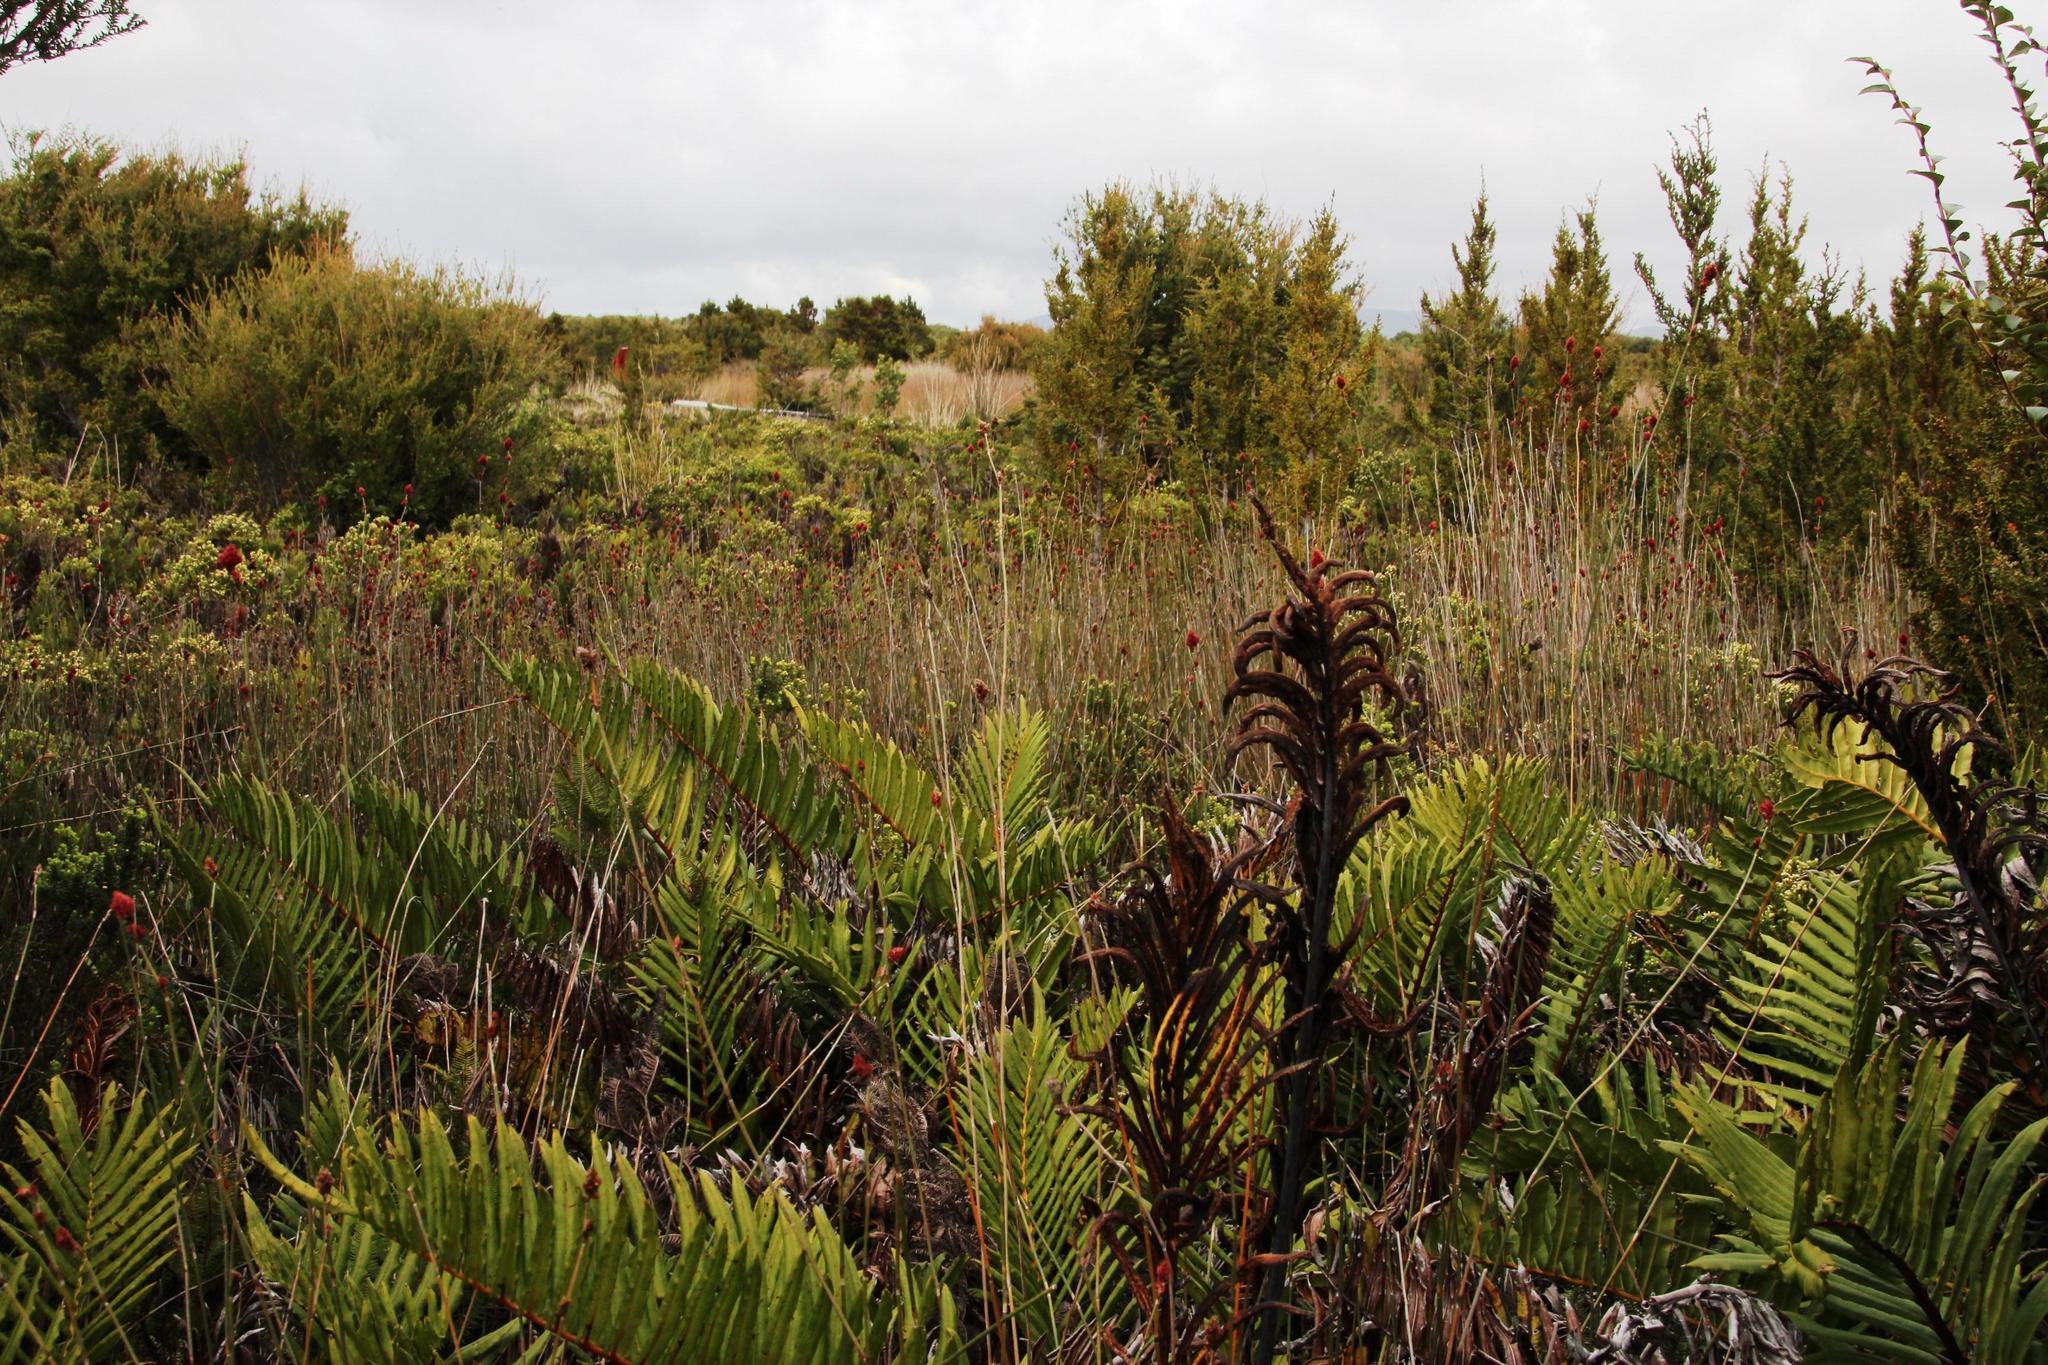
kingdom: Plantae
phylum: Tracheophyta
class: Polypodiopsida
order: Polypodiales
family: Blechnaceae
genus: Parablechnum
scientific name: Parablechnum chilense
